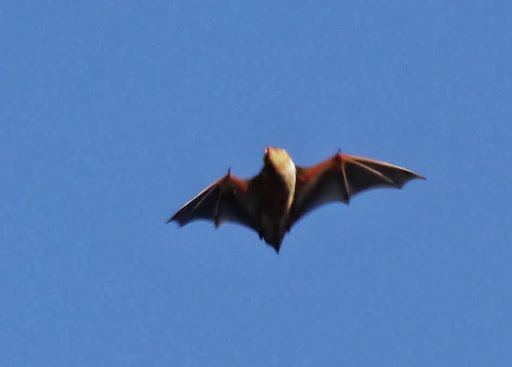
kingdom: Animalia
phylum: Chordata
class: Mammalia
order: Chiroptera
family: Vespertilionidae
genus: Lasiurus
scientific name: Lasiurus borealis
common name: Eastern red bat
